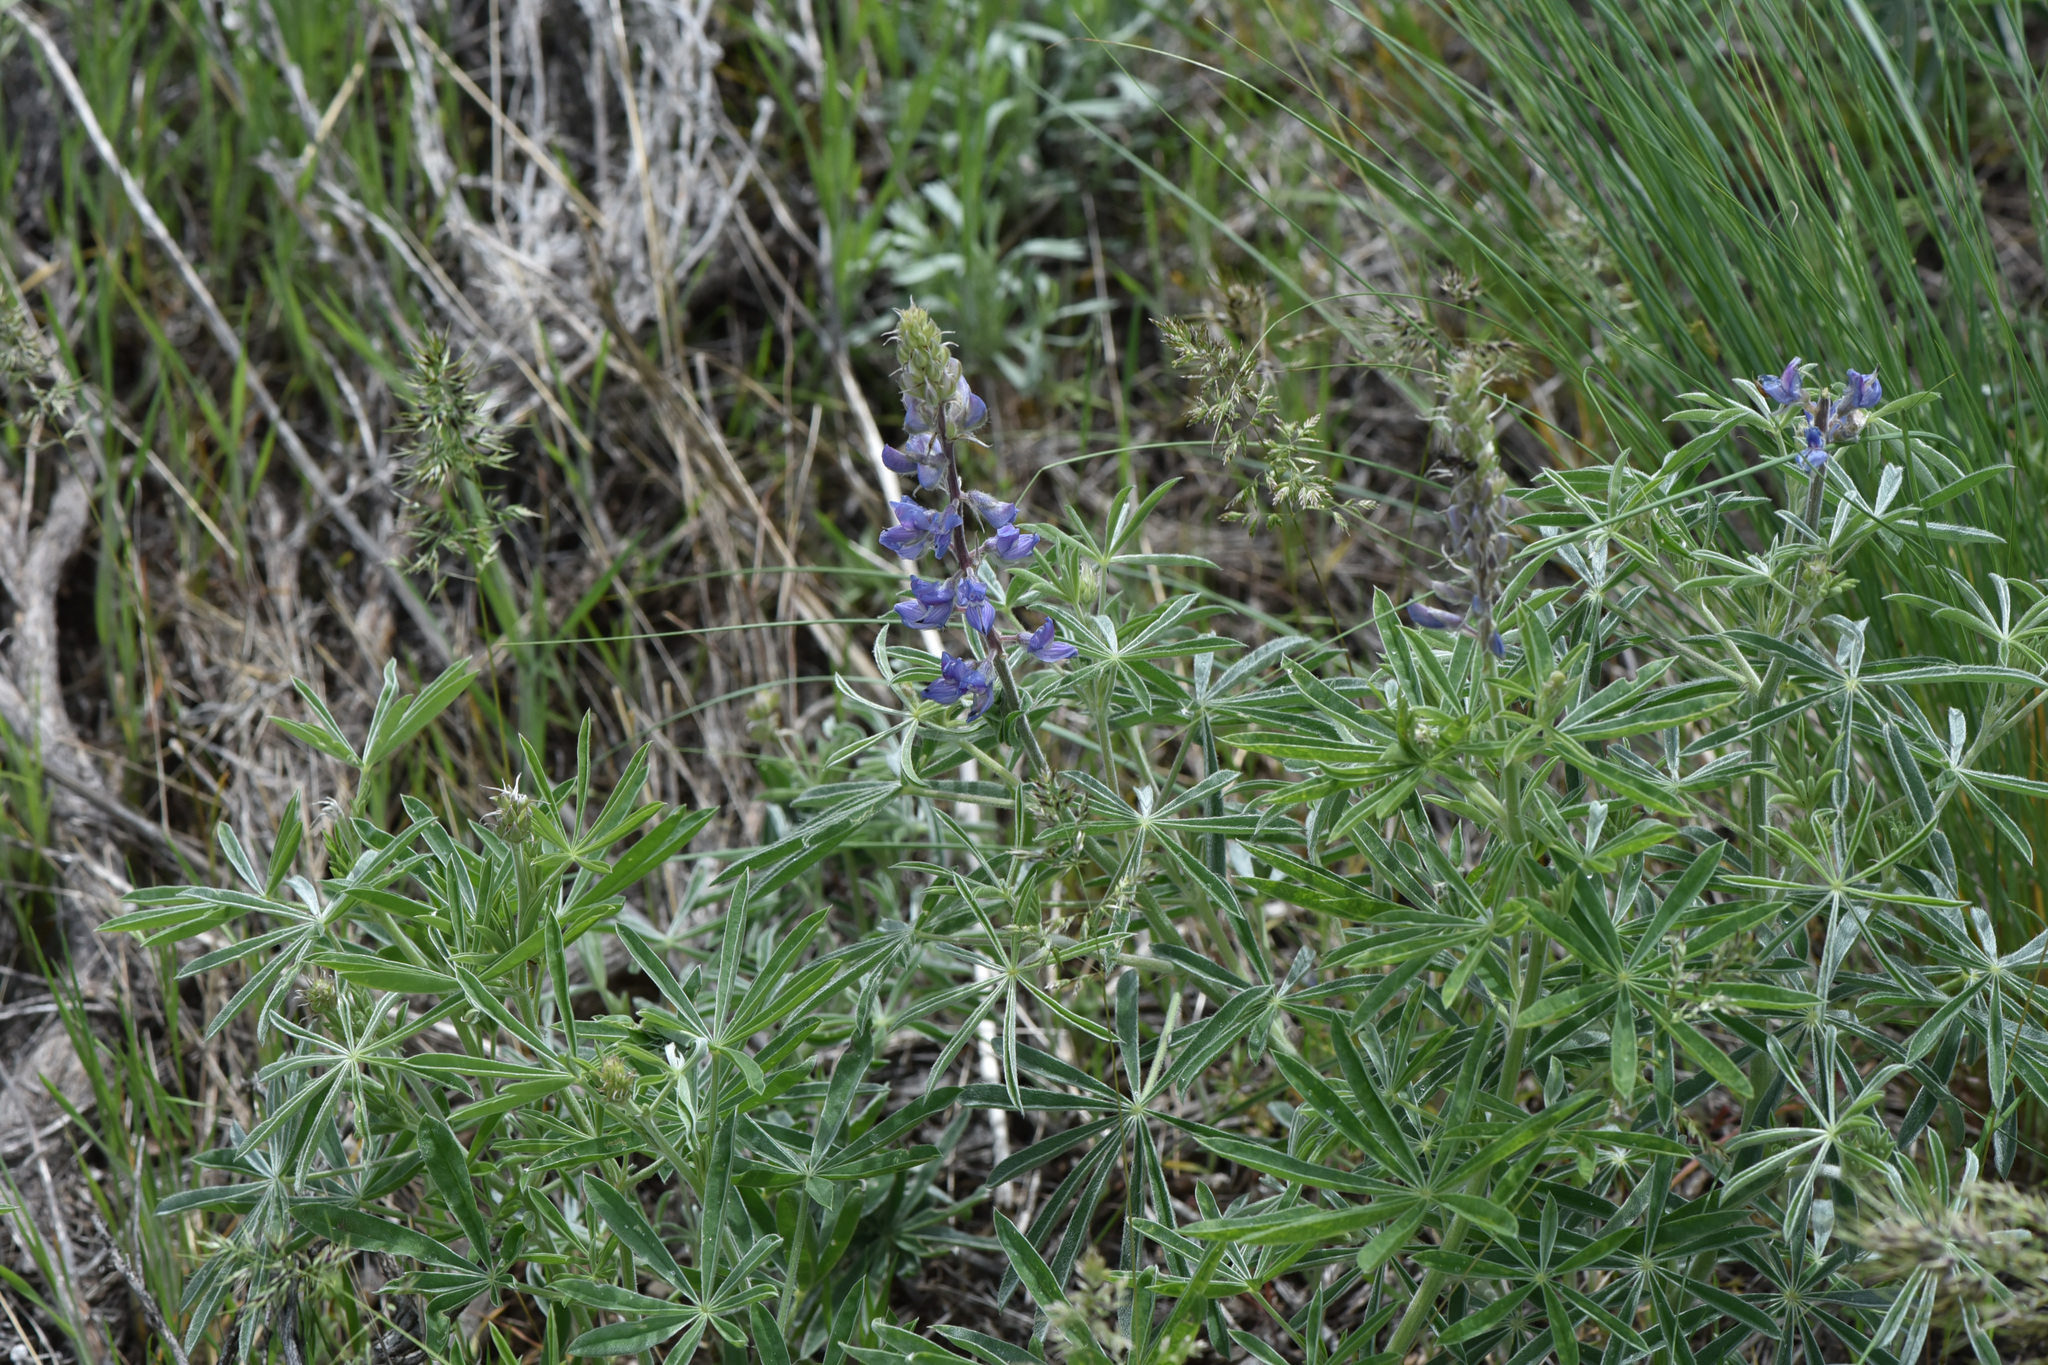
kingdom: Plantae
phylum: Tracheophyta
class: Magnoliopsida
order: Fabales
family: Fabaceae
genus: Lupinus
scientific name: Lupinus sericeus
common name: Silky lupine
